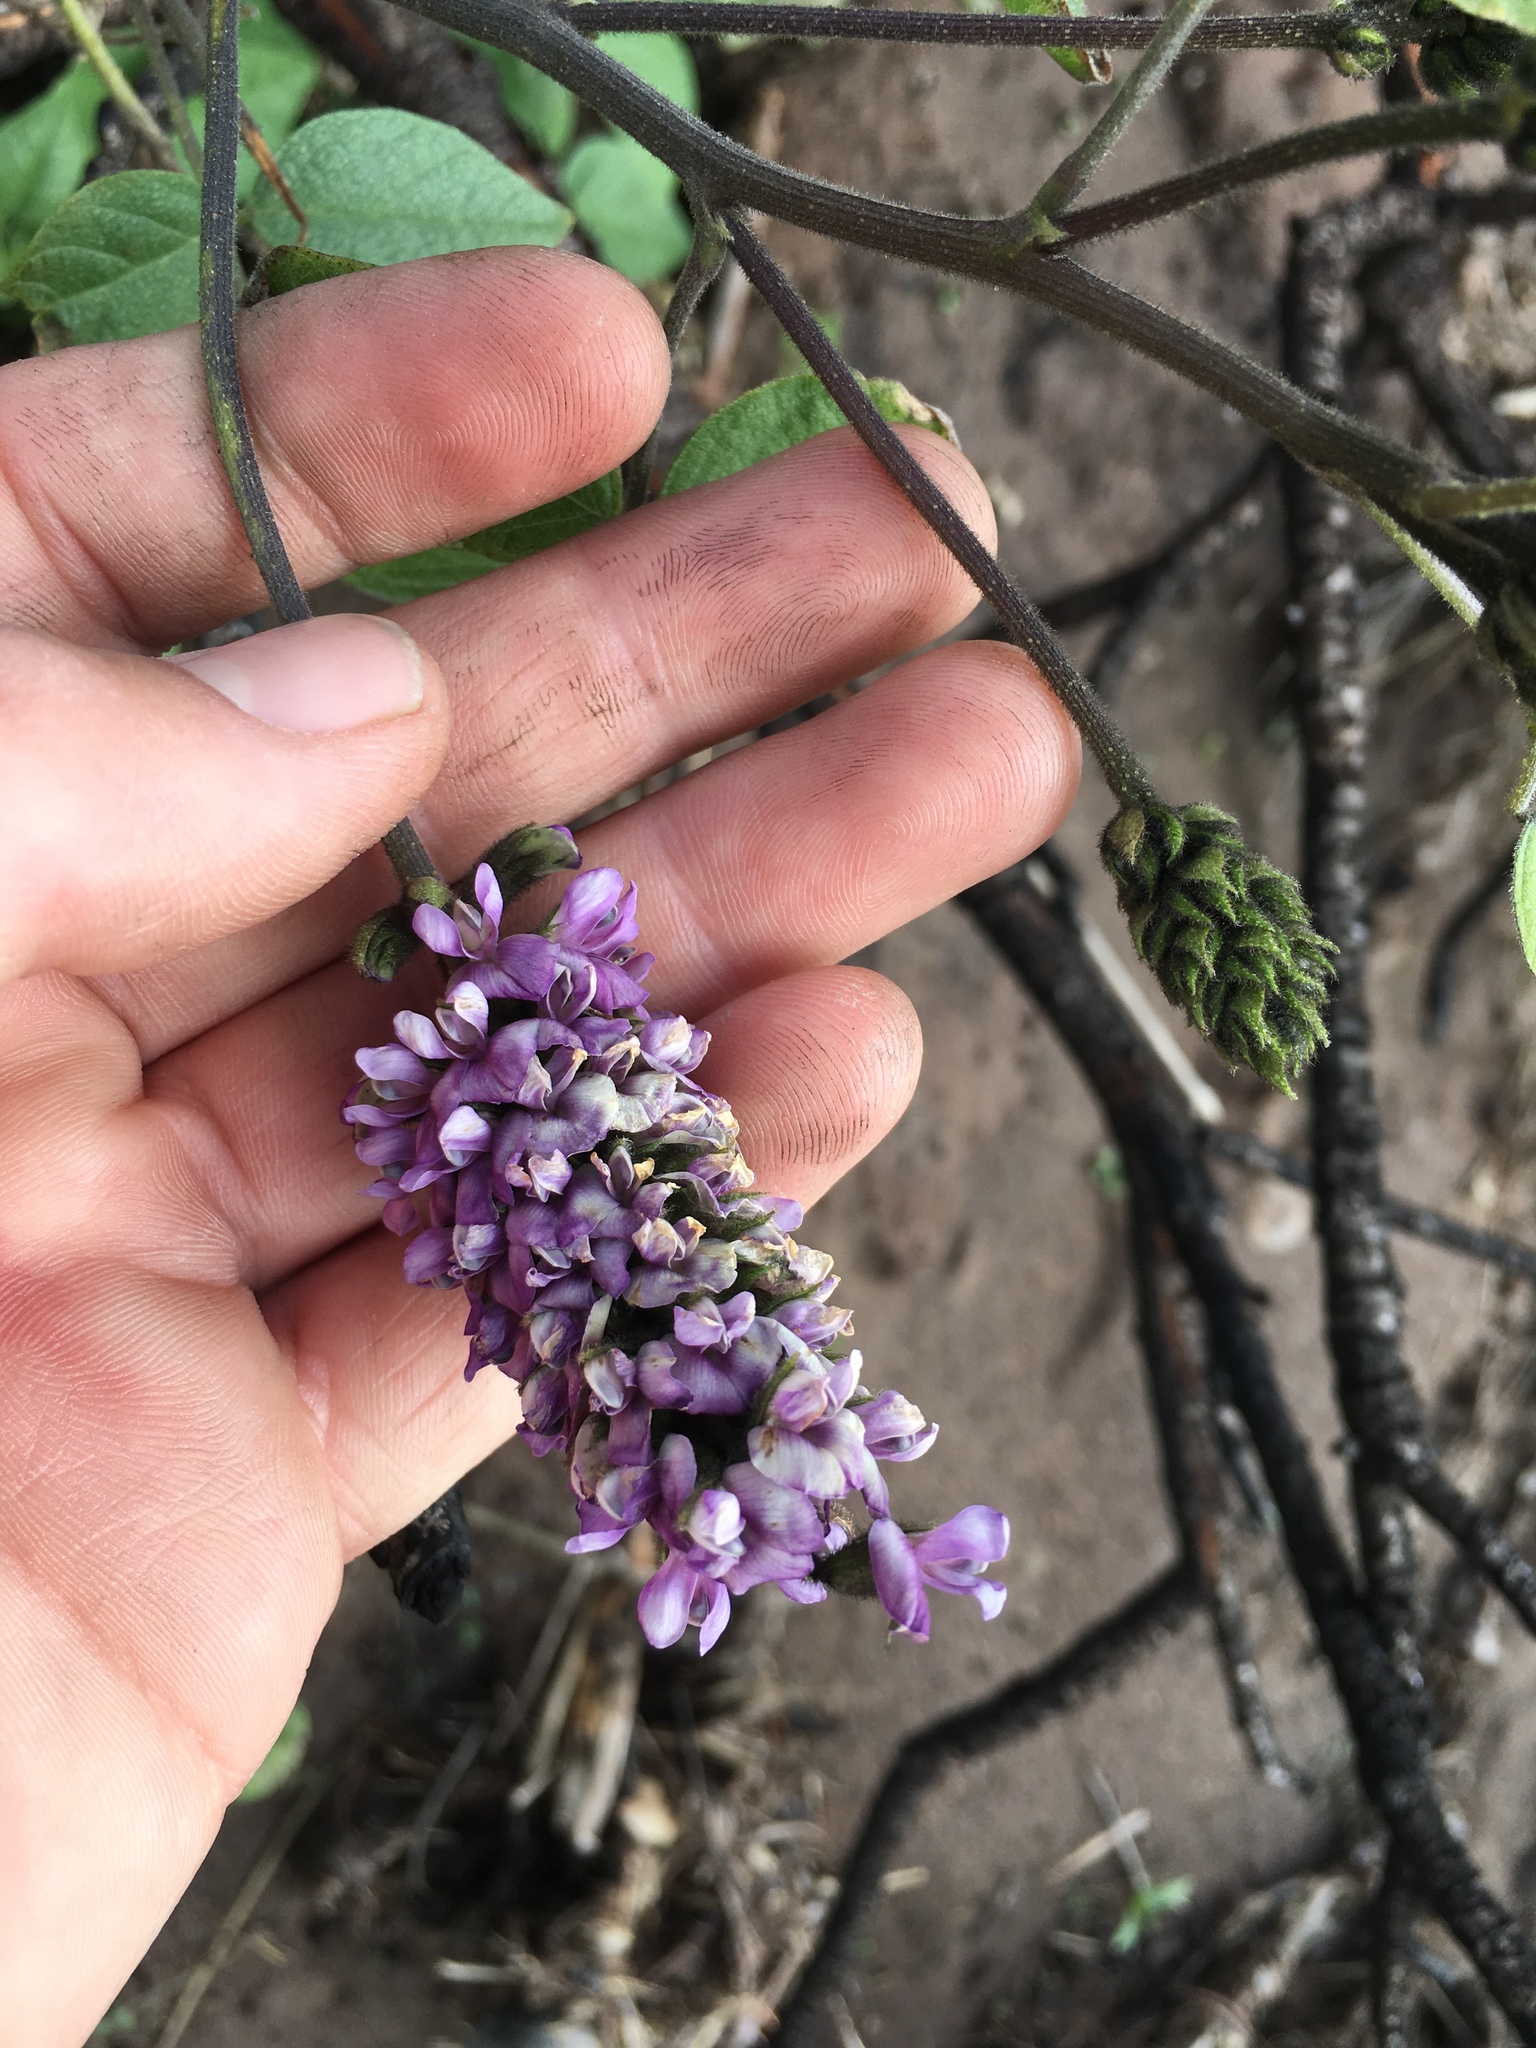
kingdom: Plantae
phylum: Tracheophyta
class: Magnoliopsida
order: Fabales
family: Fabaceae
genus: Hoita
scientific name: Hoita macrostachya
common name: Leatherroot
